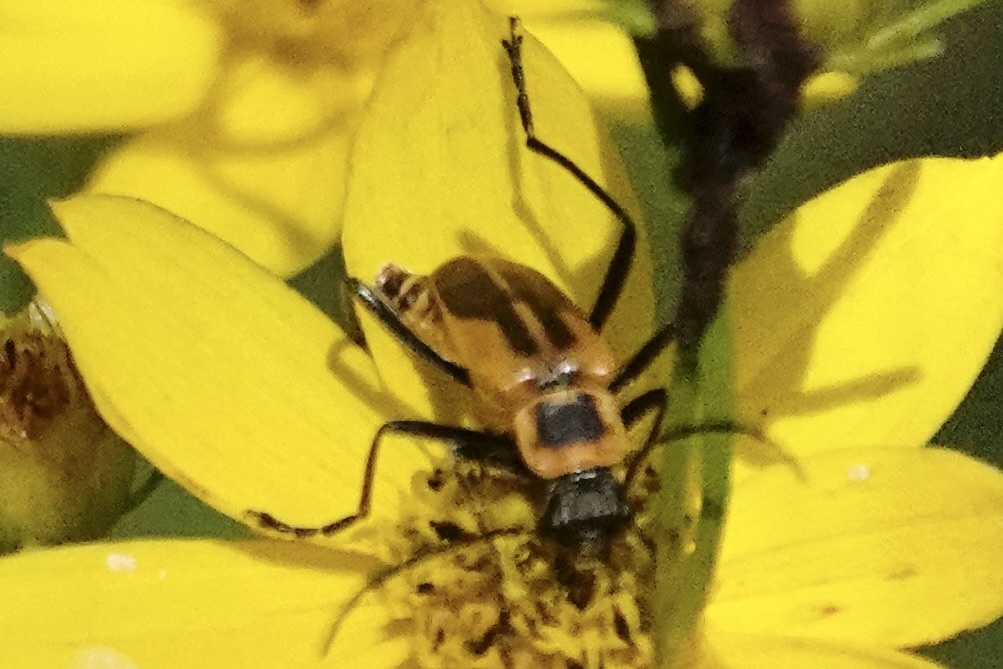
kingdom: Animalia
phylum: Arthropoda
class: Insecta
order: Coleoptera
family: Cantharidae
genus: Chauliognathus
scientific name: Chauliognathus pensylvanicus
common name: Goldenrod soldier beetle
